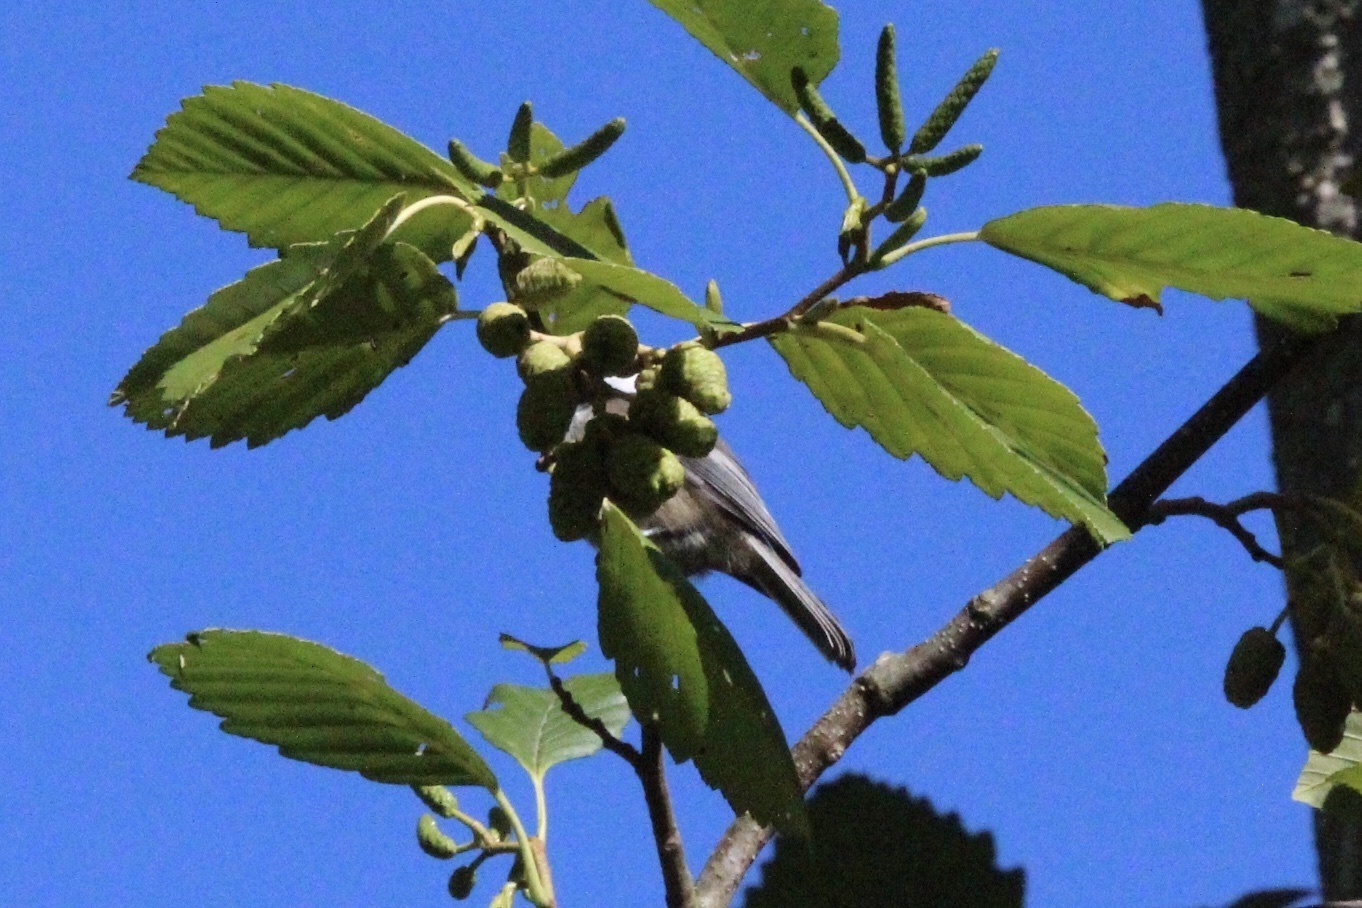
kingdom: Animalia
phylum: Chordata
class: Aves
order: Passeriformes
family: Paridae
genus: Poecile
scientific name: Poecile atricapillus
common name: Black-capped chickadee
